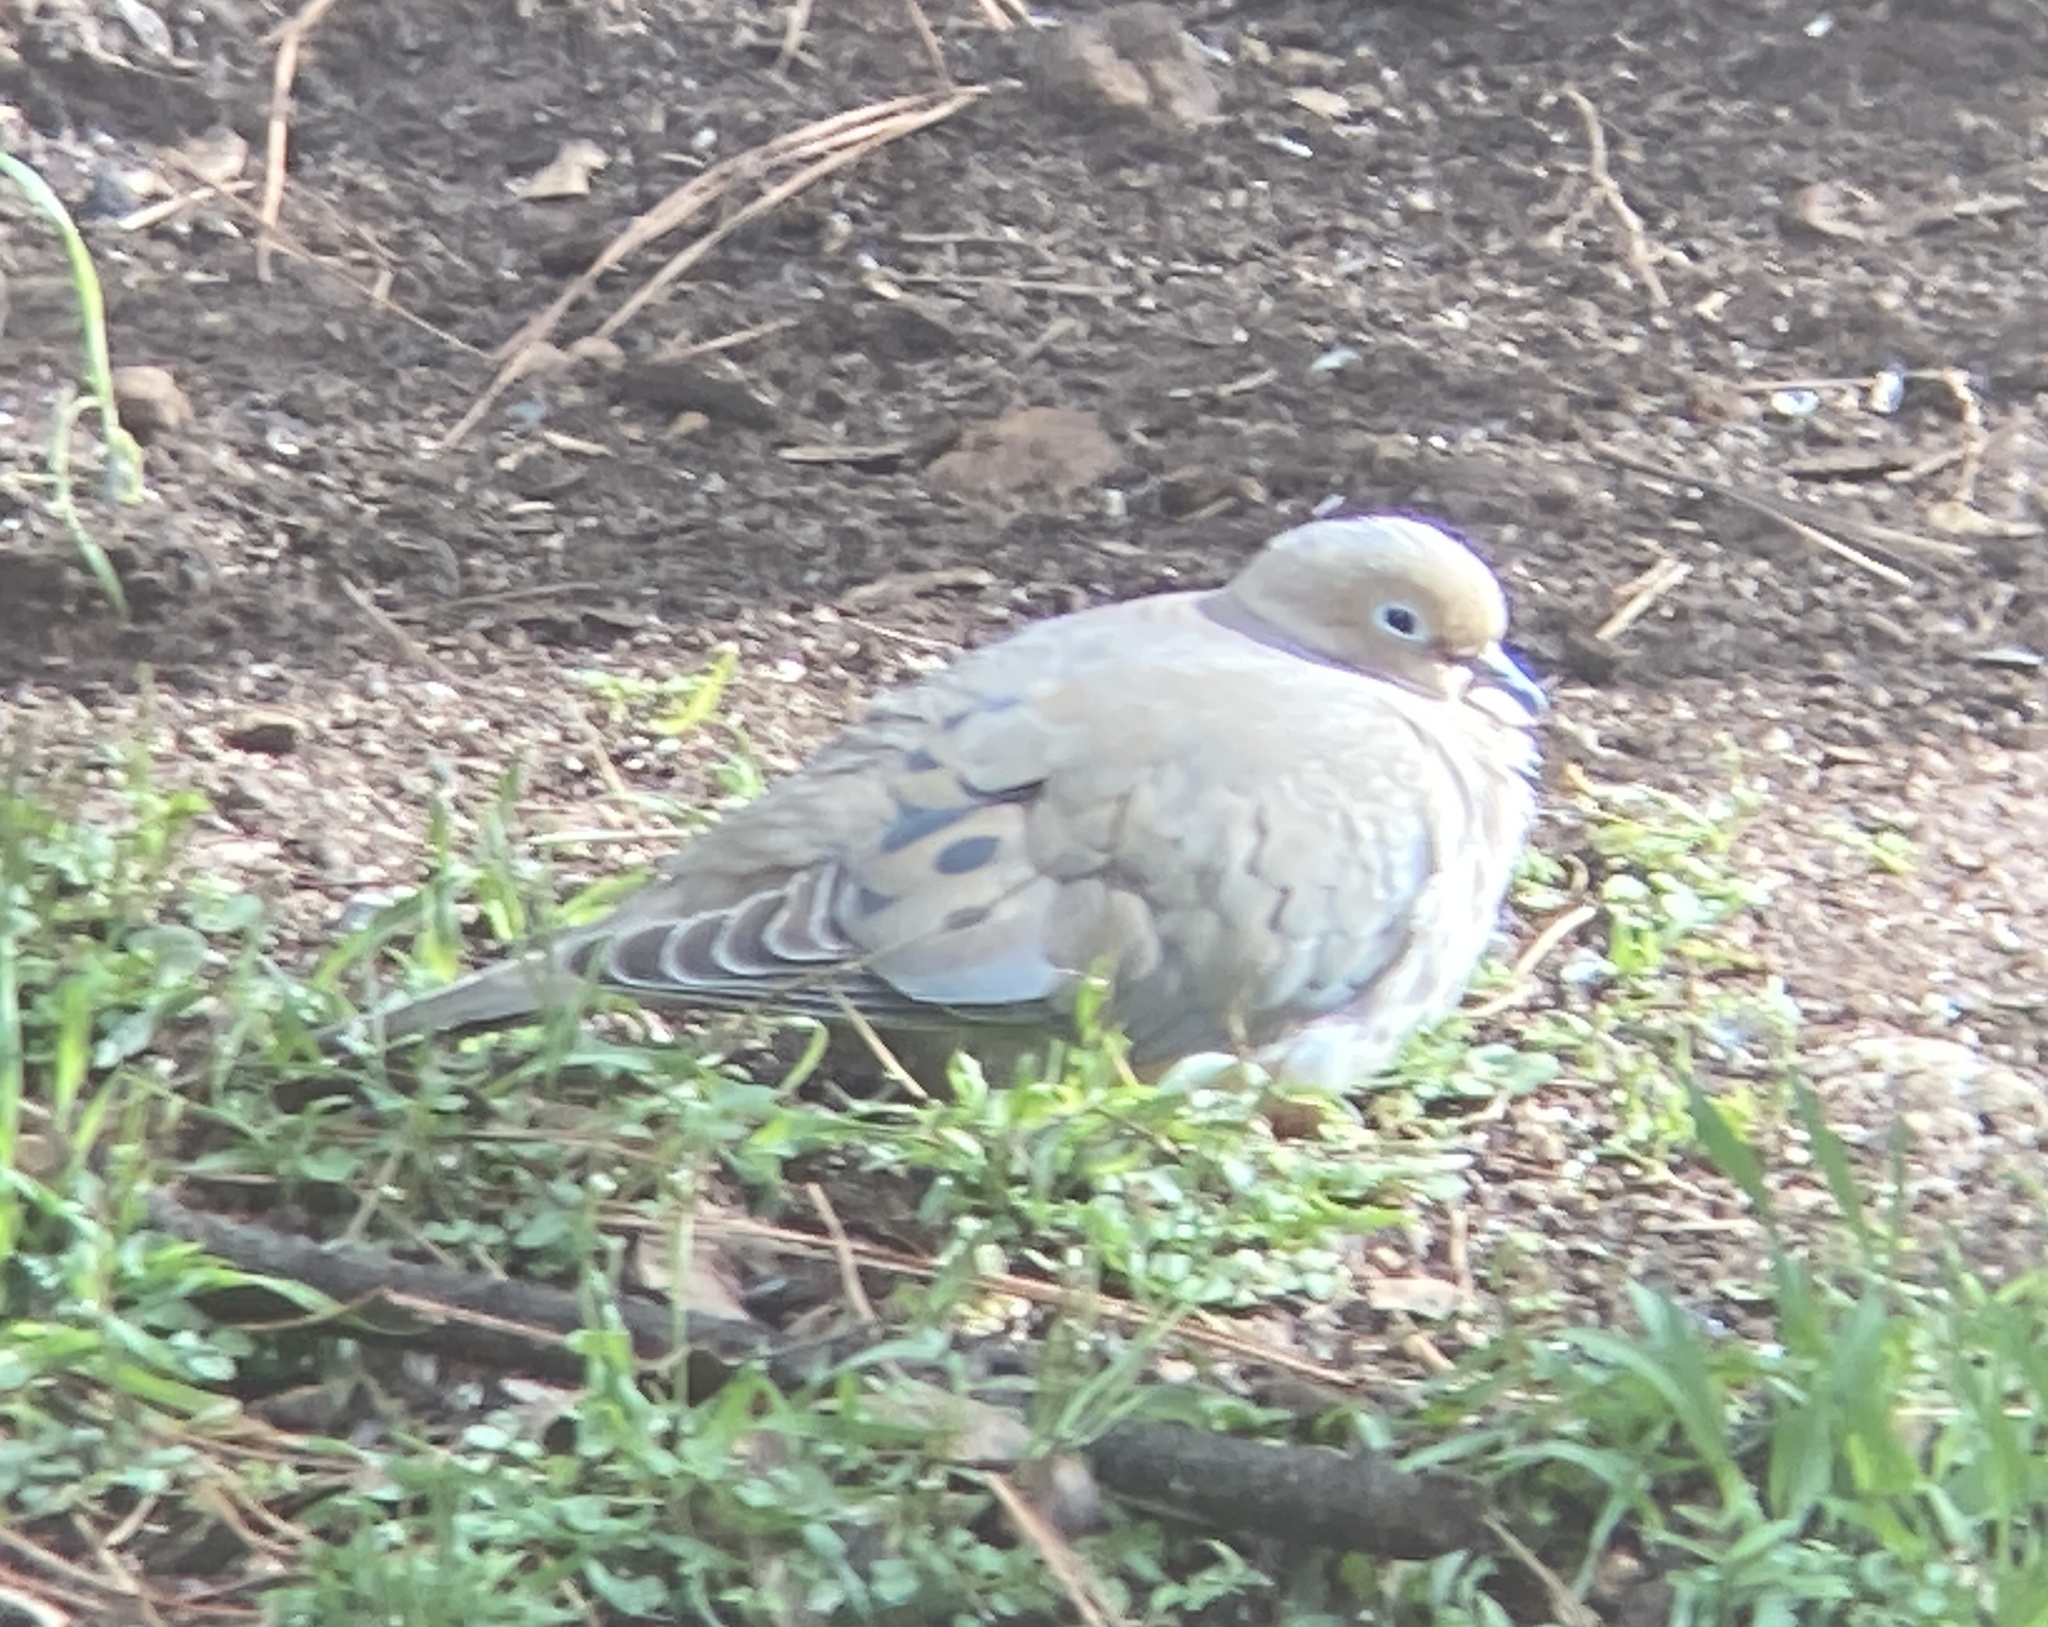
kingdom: Animalia
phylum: Chordata
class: Aves
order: Columbiformes
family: Columbidae
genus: Zenaida
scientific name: Zenaida macroura
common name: Mourning dove
